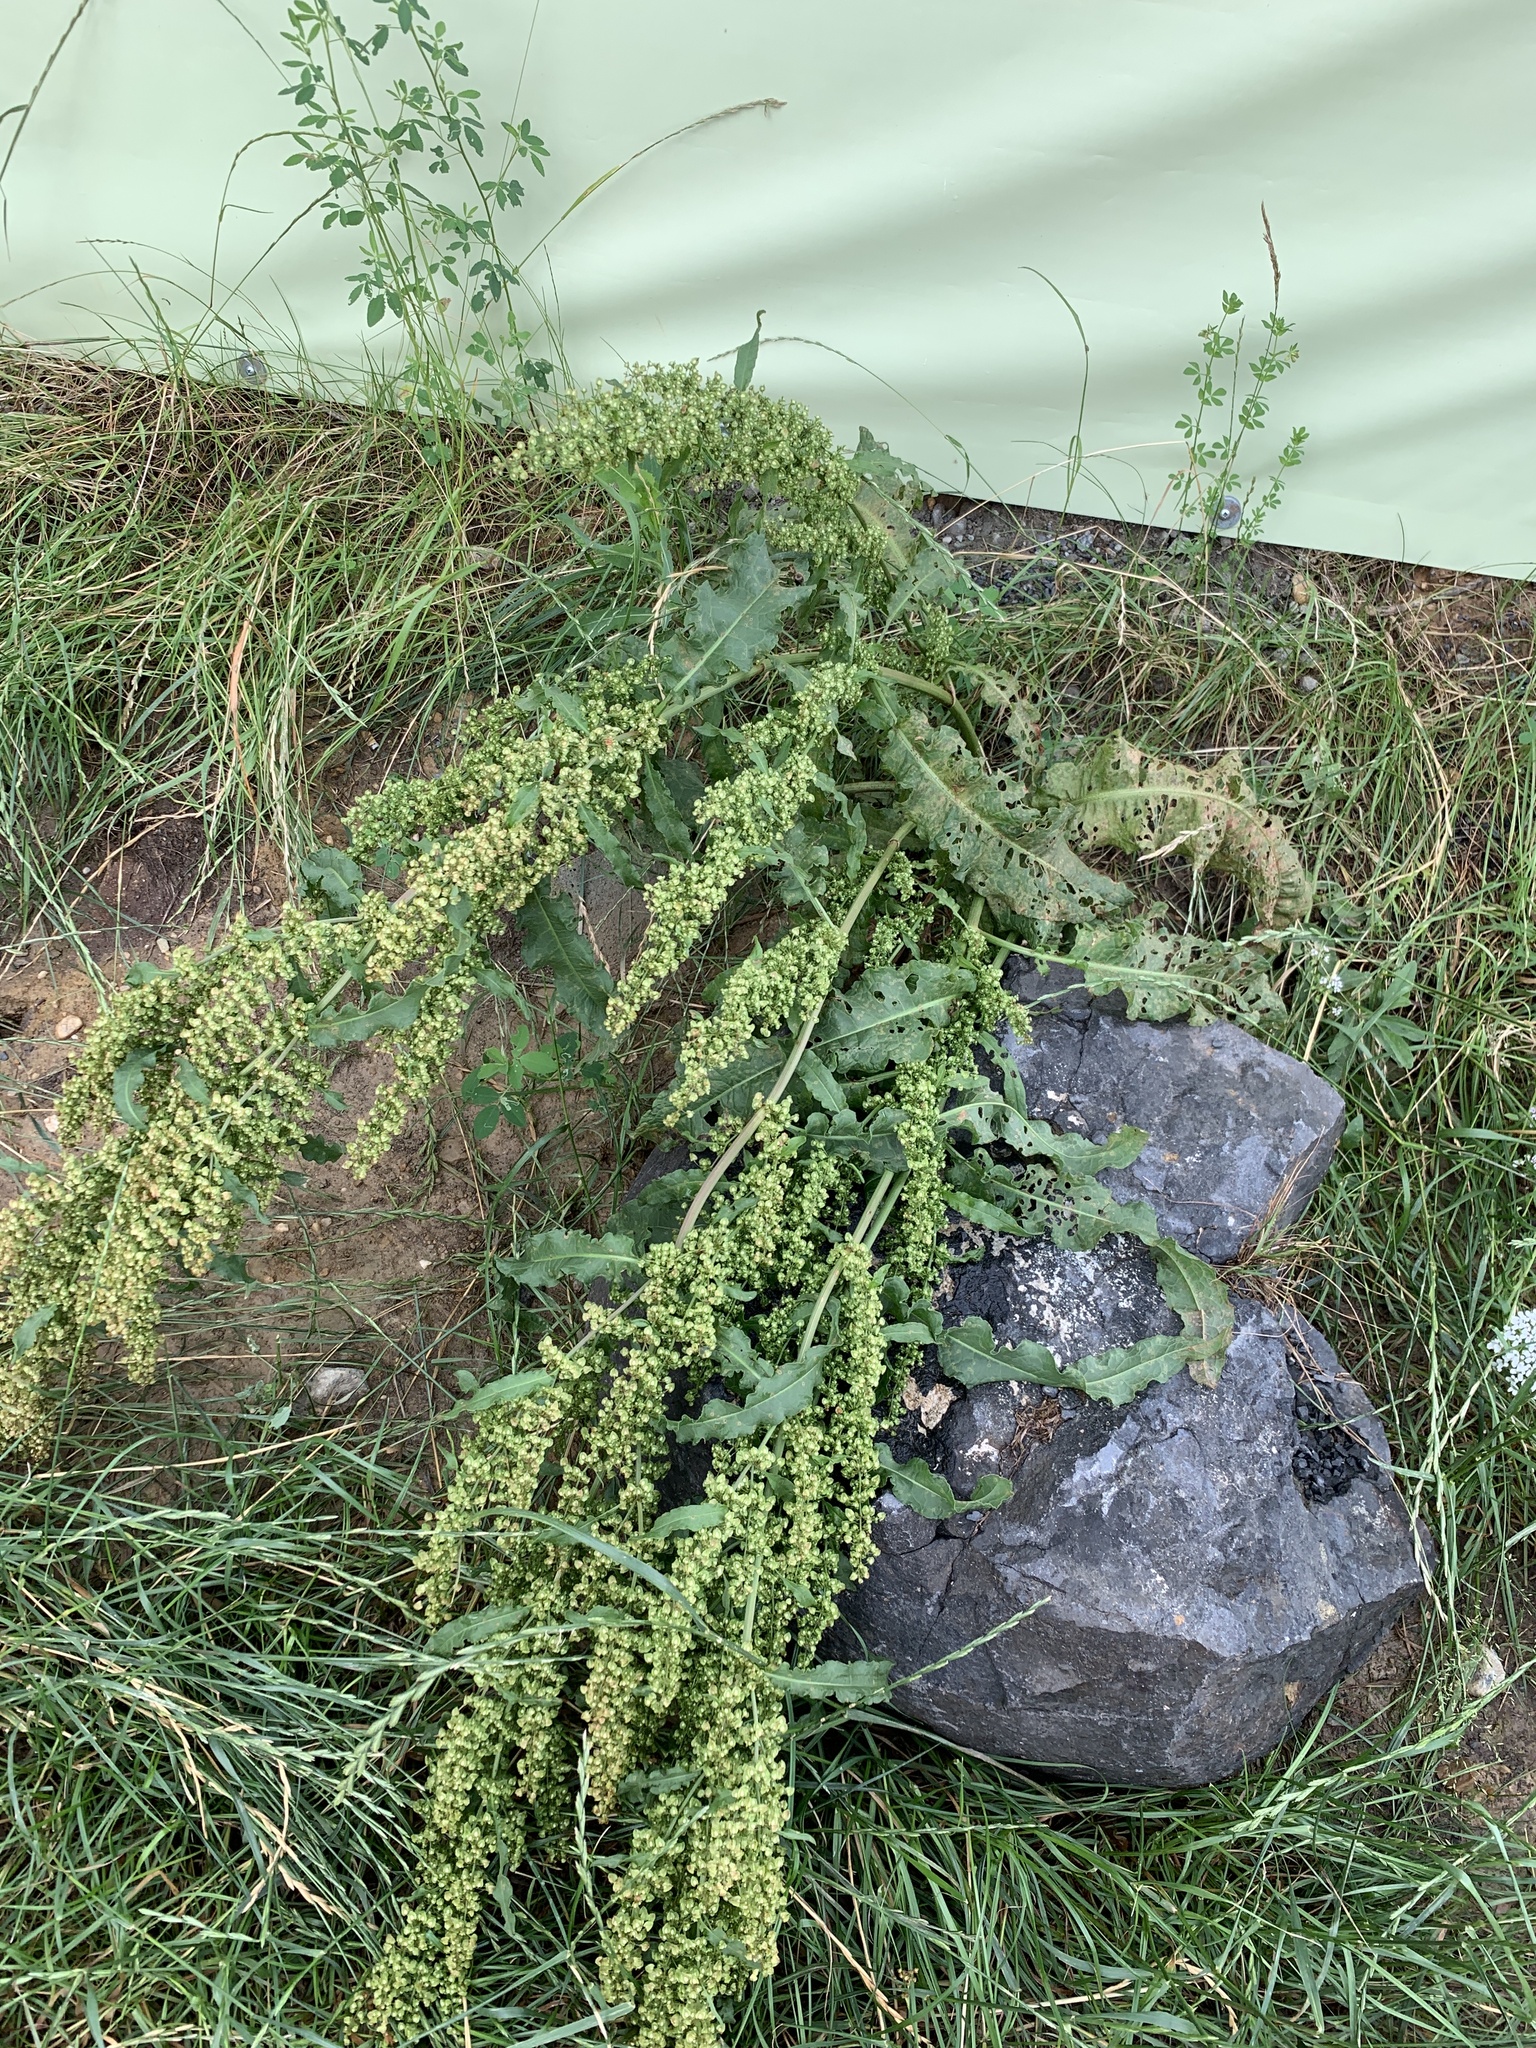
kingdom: Plantae
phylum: Tracheophyta
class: Magnoliopsida
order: Caryophyllales
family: Polygonaceae
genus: Rumex
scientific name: Rumex crispus
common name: Curled dock
